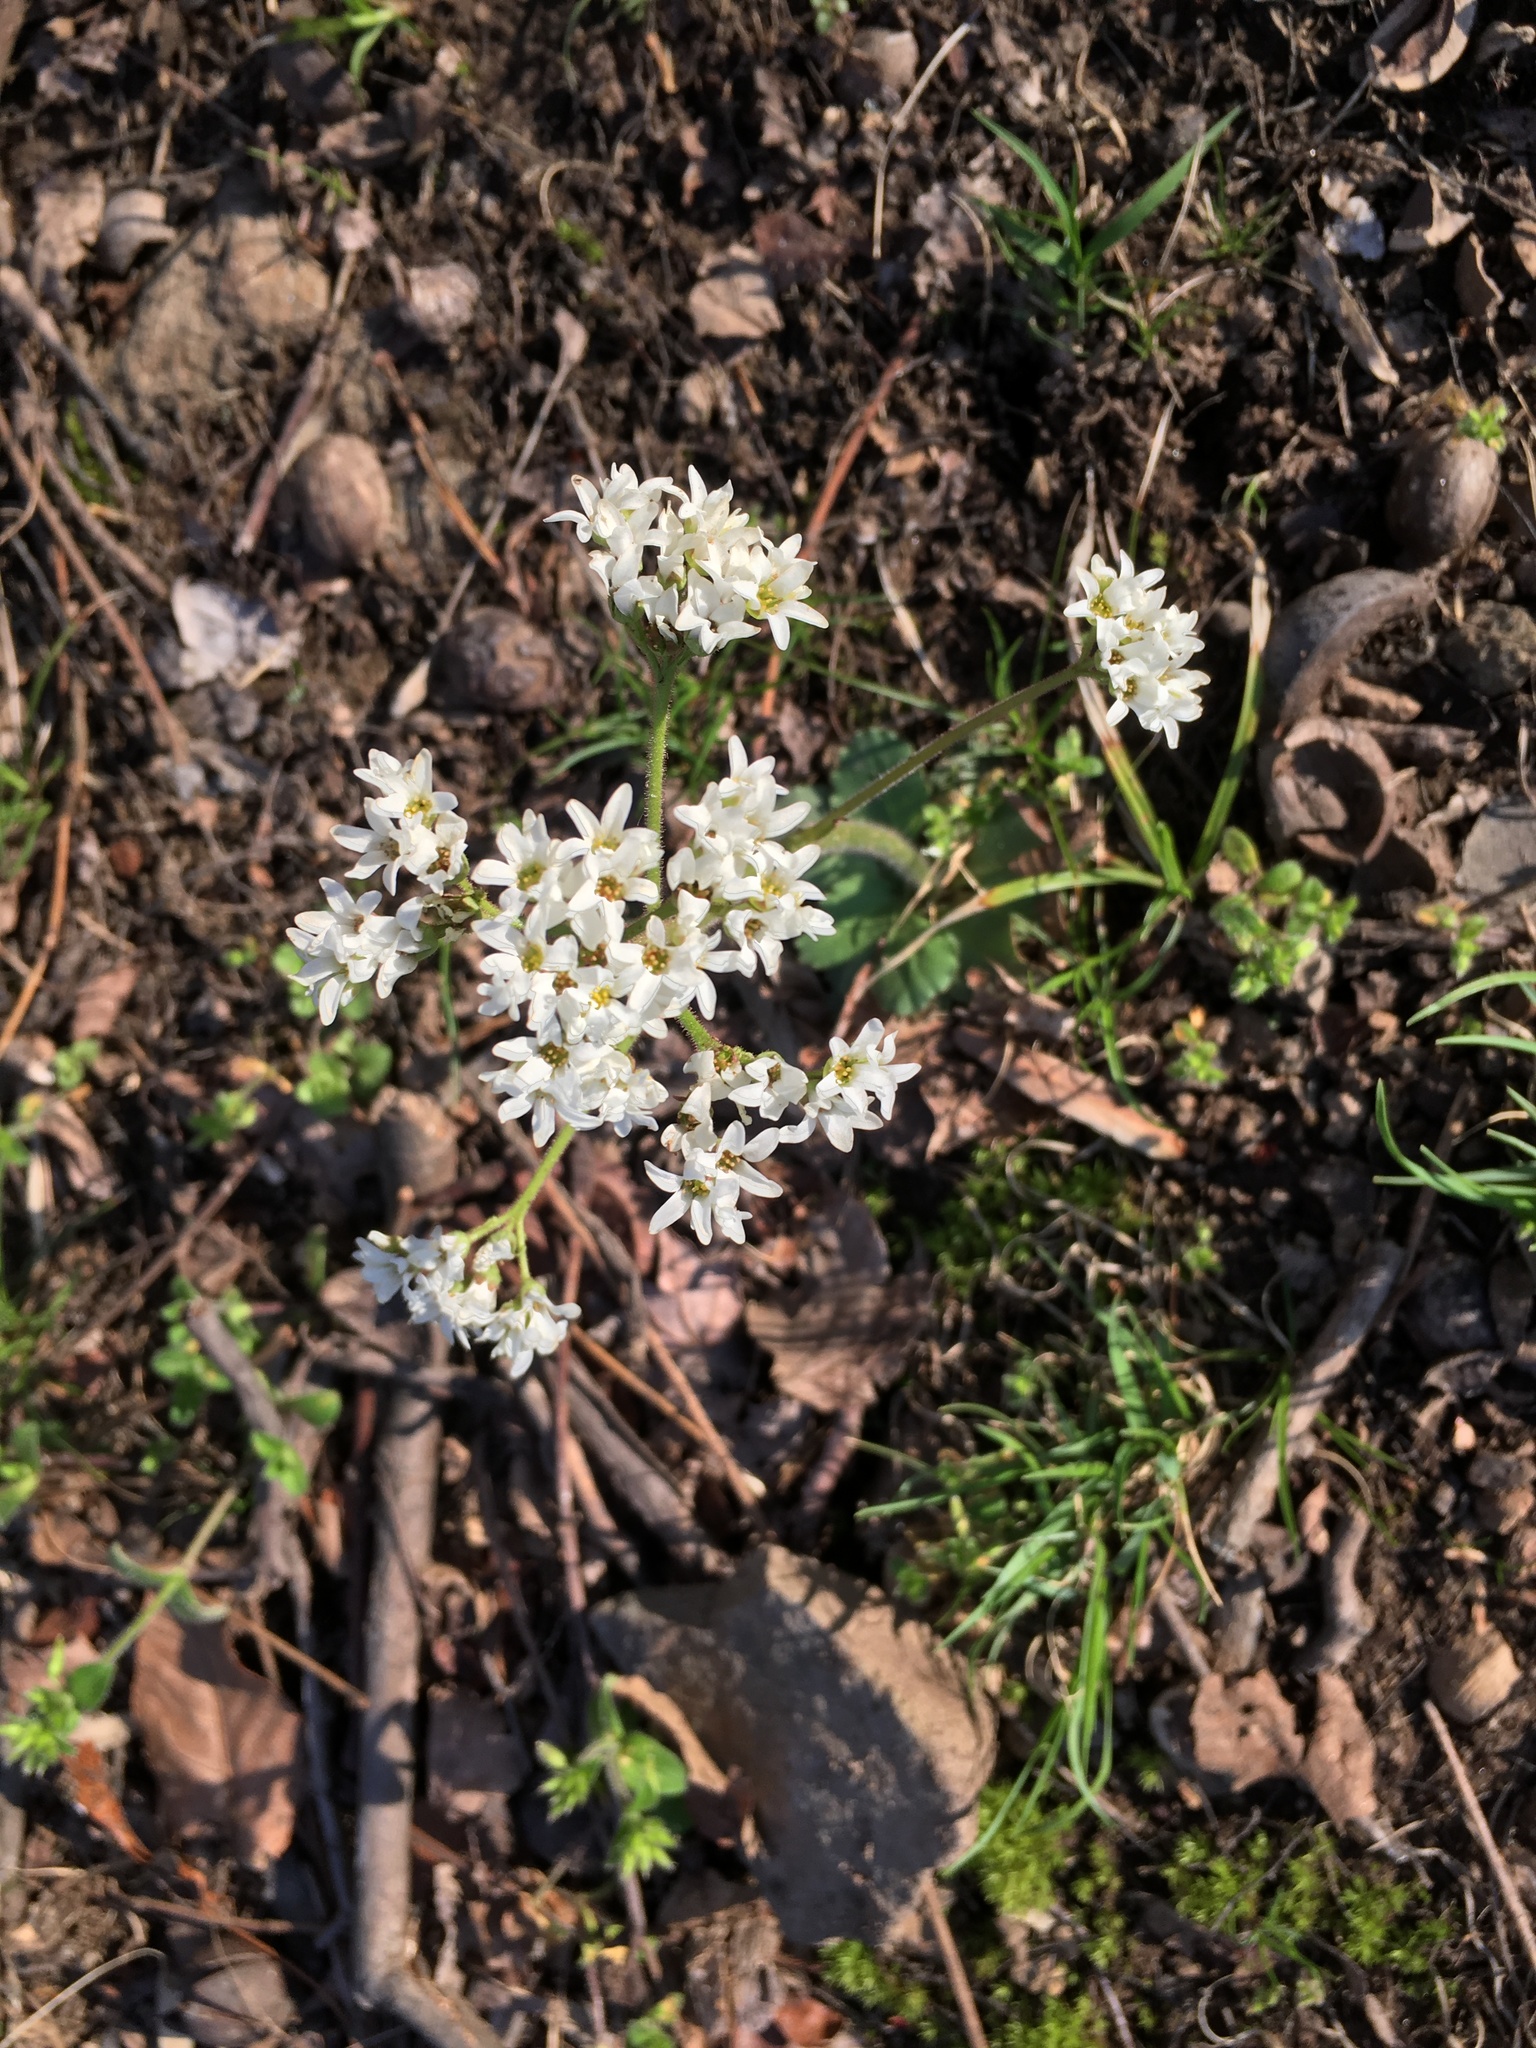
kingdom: Plantae
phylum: Tracheophyta
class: Magnoliopsida
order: Saxifragales
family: Saxifragaceae
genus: Micranthes
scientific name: Micranthes virginiensis
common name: Early saxifrage
